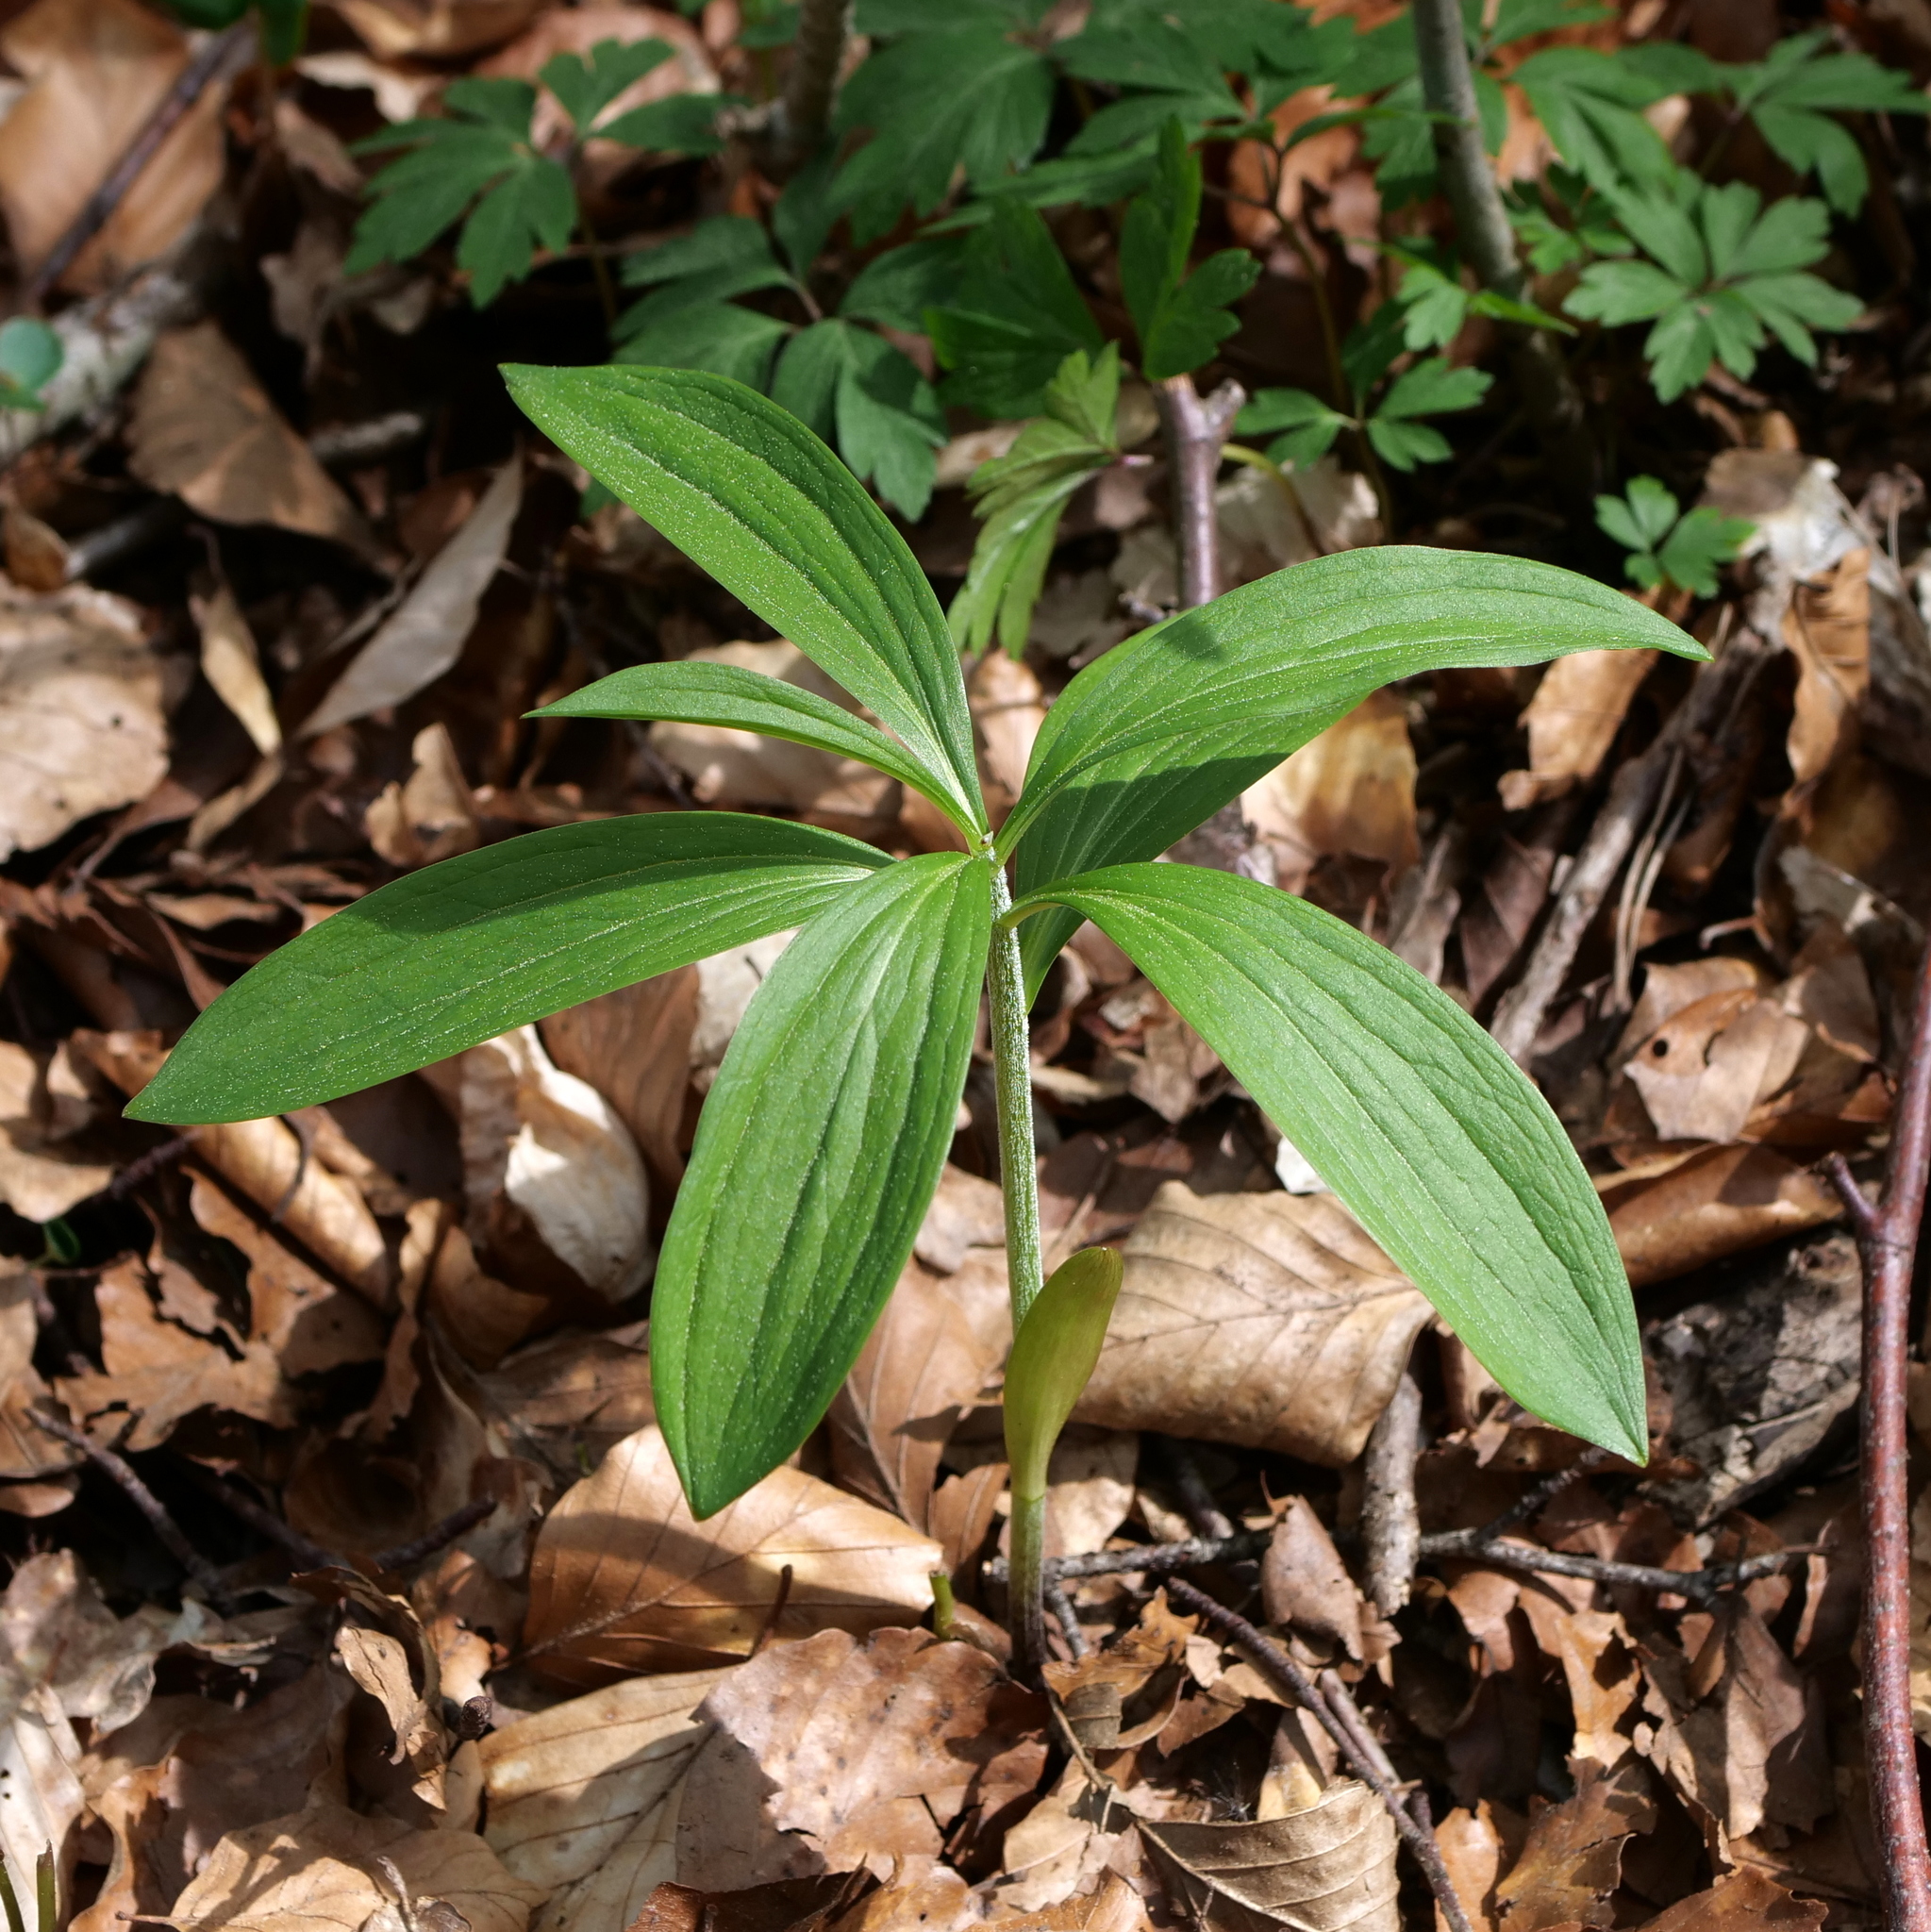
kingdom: Plantae
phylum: Tracheophyta
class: Liliopsida
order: Liliales
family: Liliaceae
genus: Lilium
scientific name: Lilium martagon
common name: Martagon lily
